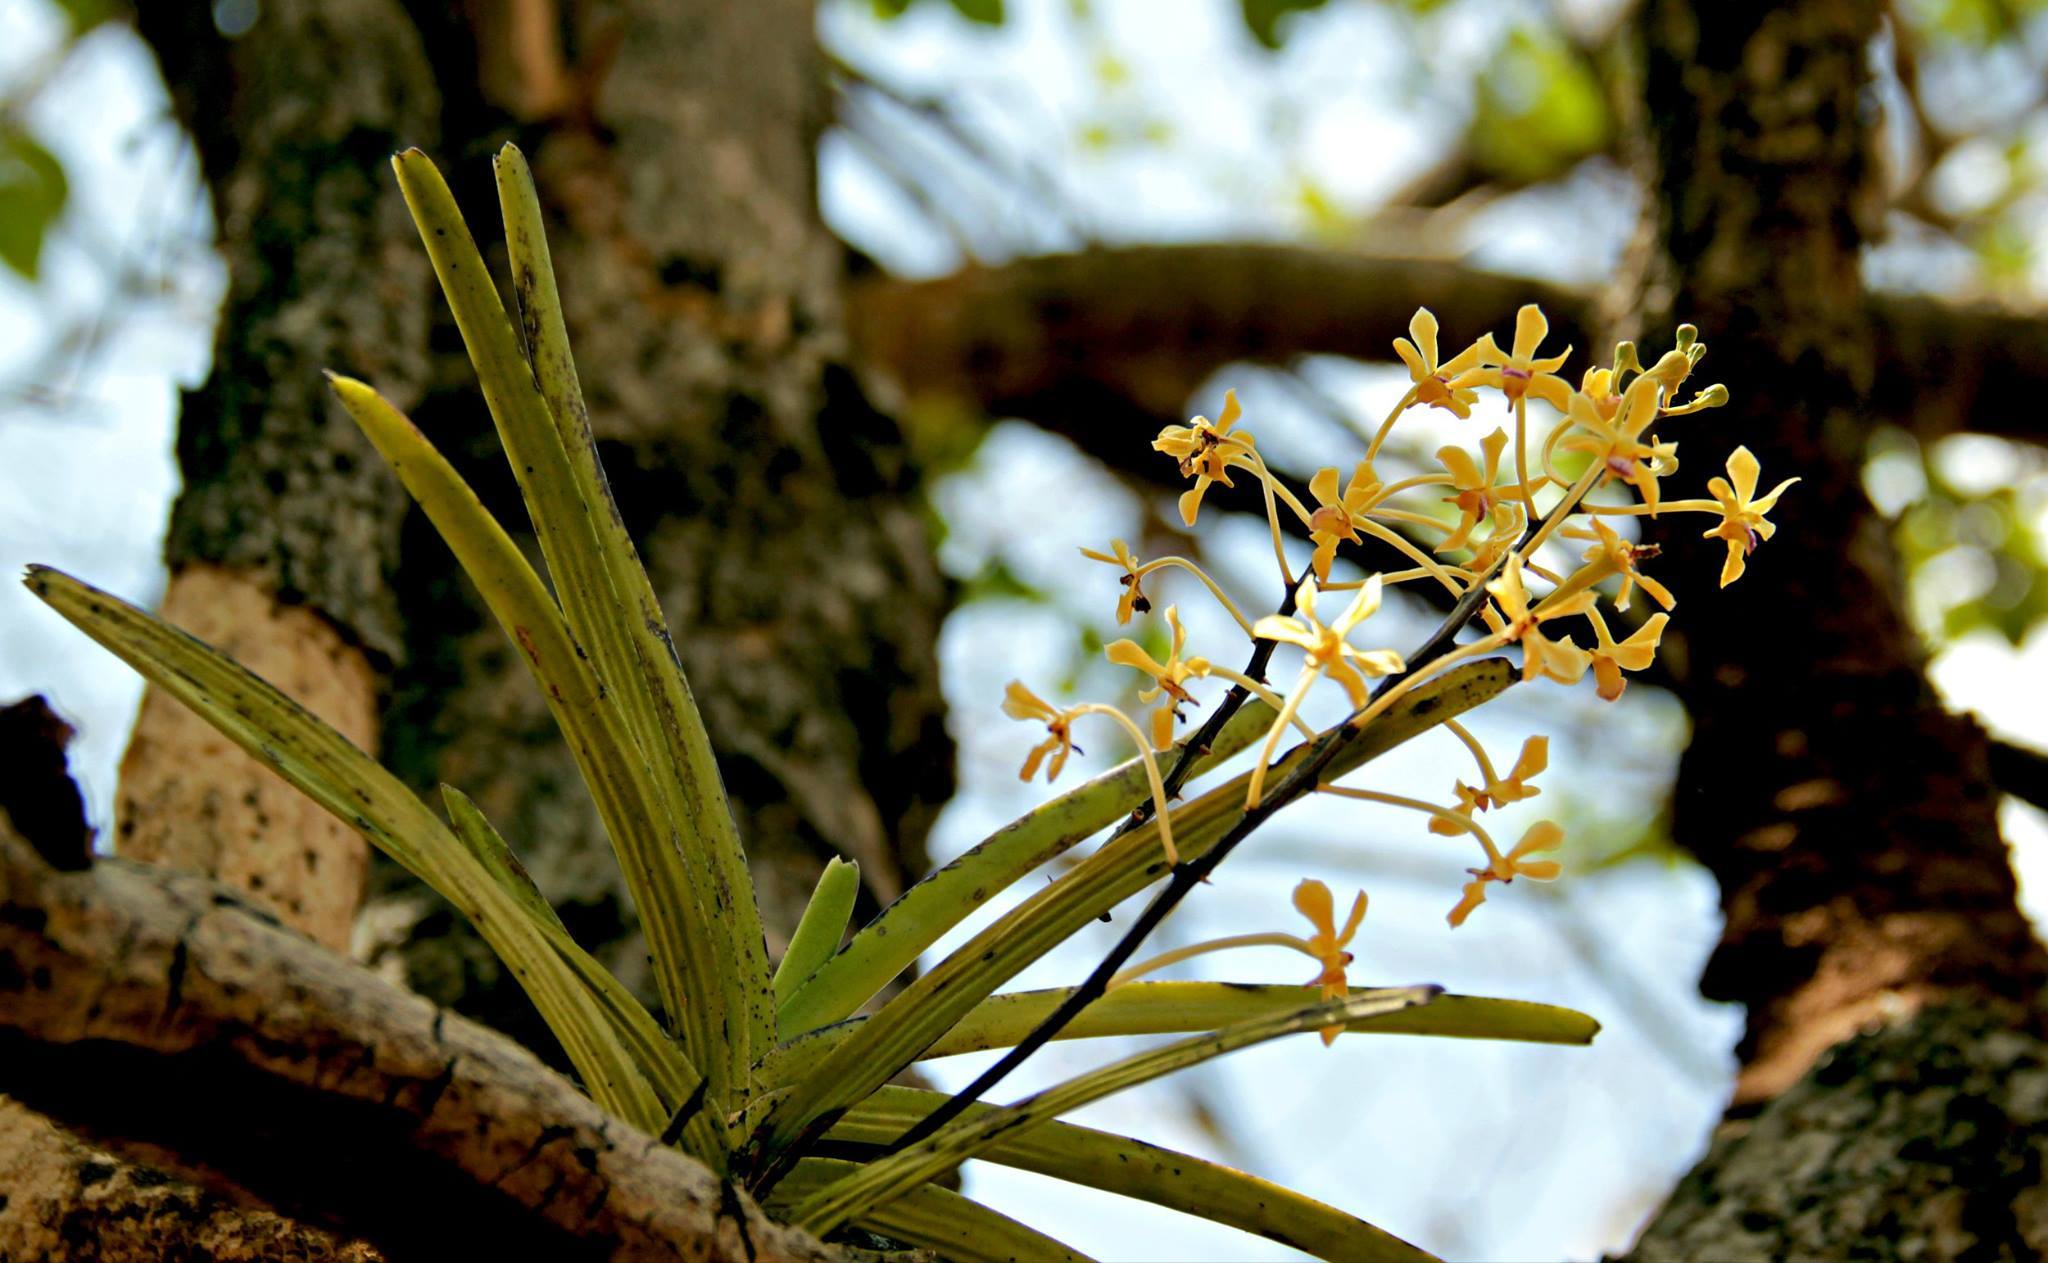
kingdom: Plantae
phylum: Tracheophyta
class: Liliopsida
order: Asparagales
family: Orchidaceae
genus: Vanda
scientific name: Vanda testacea
